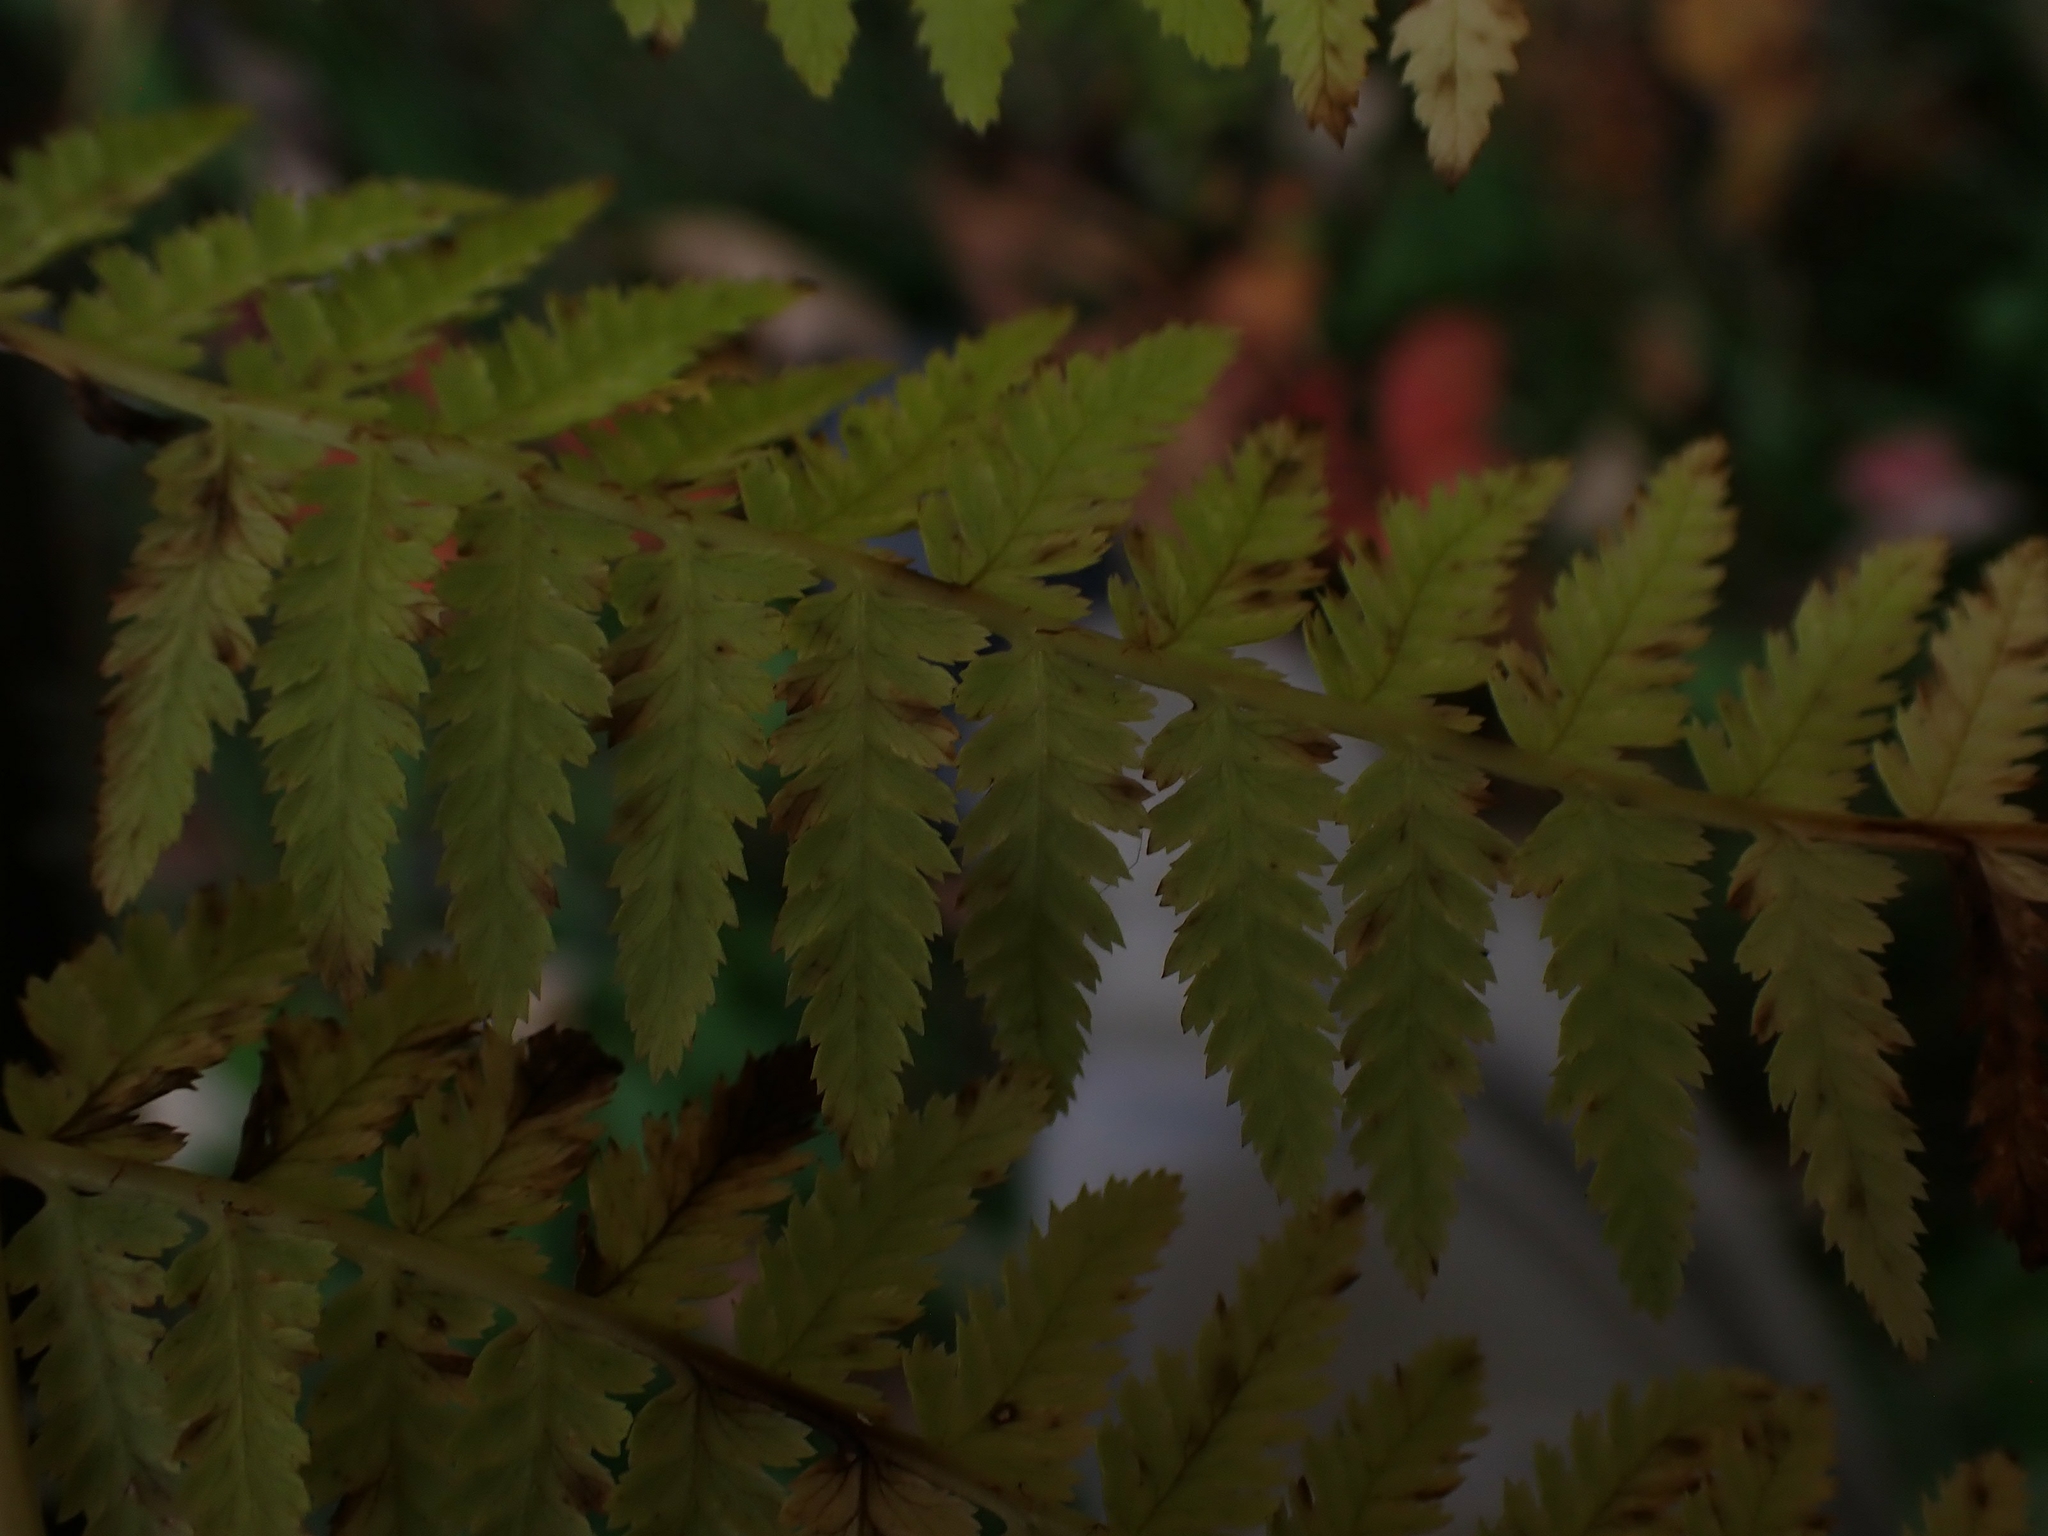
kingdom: Plantae
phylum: Tracheophyta
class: Polypodiopsida
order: Polypodiales
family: Athyriaceae
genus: Athyrium
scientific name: Athyrium angustum
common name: Northern lady fern
